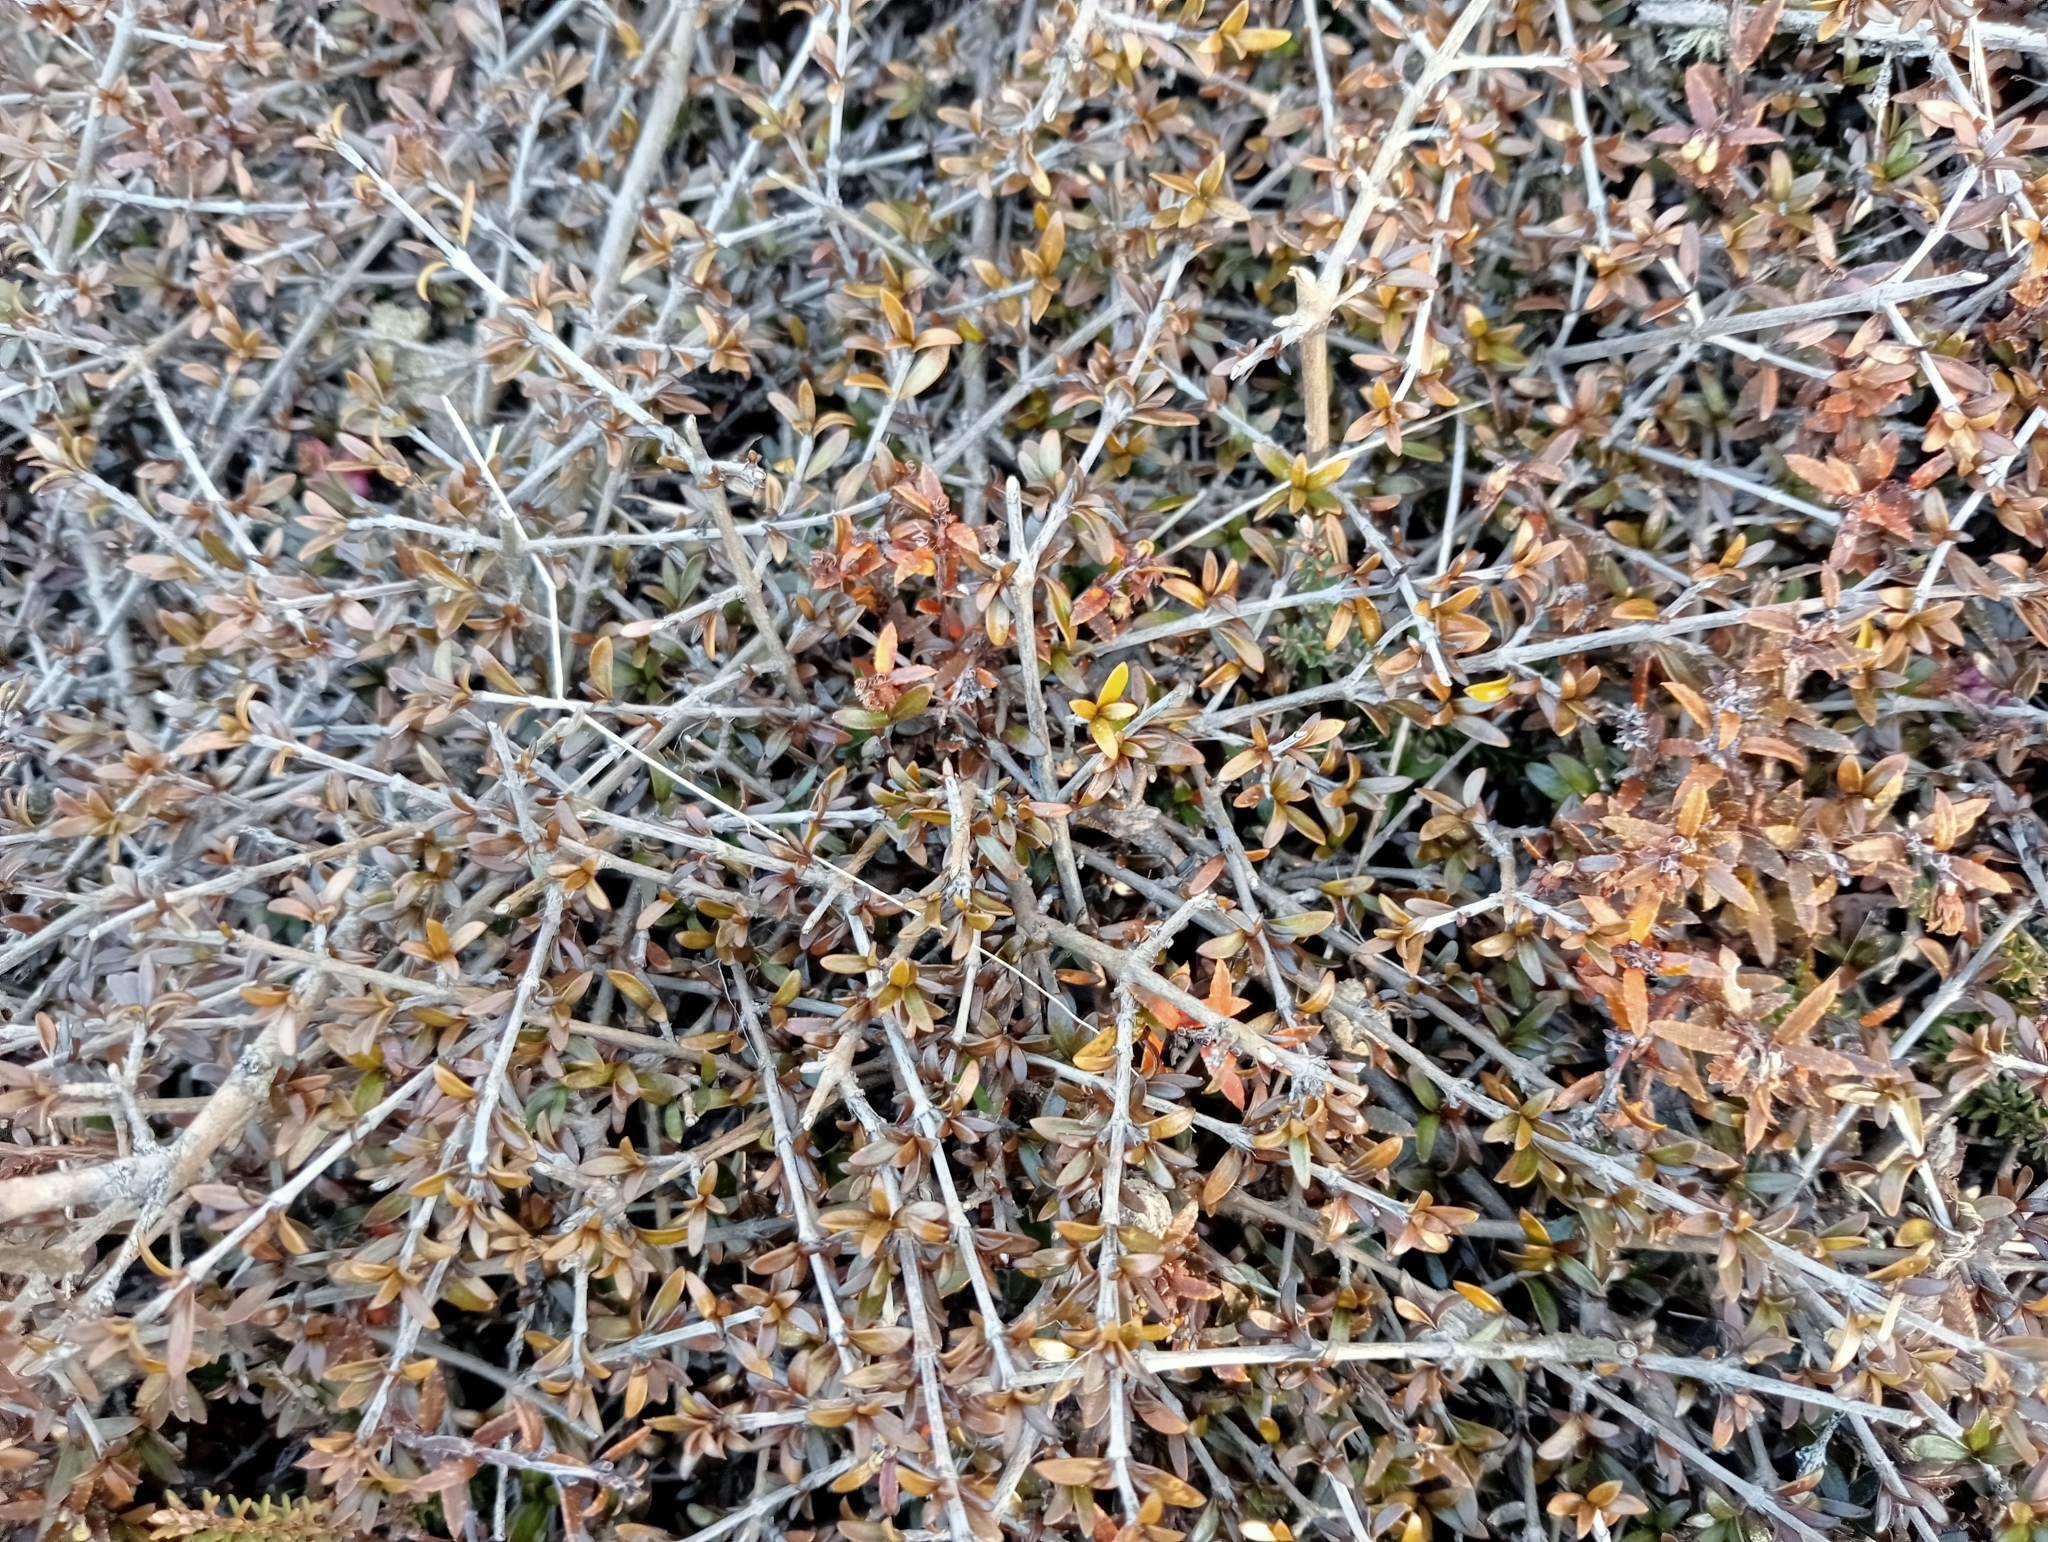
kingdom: Plantae
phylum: Tracheophyta
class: Magnoliopsida
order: Gentianales
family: Rubiaceae
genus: Coprosma
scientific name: Coprosma cheesemanii
